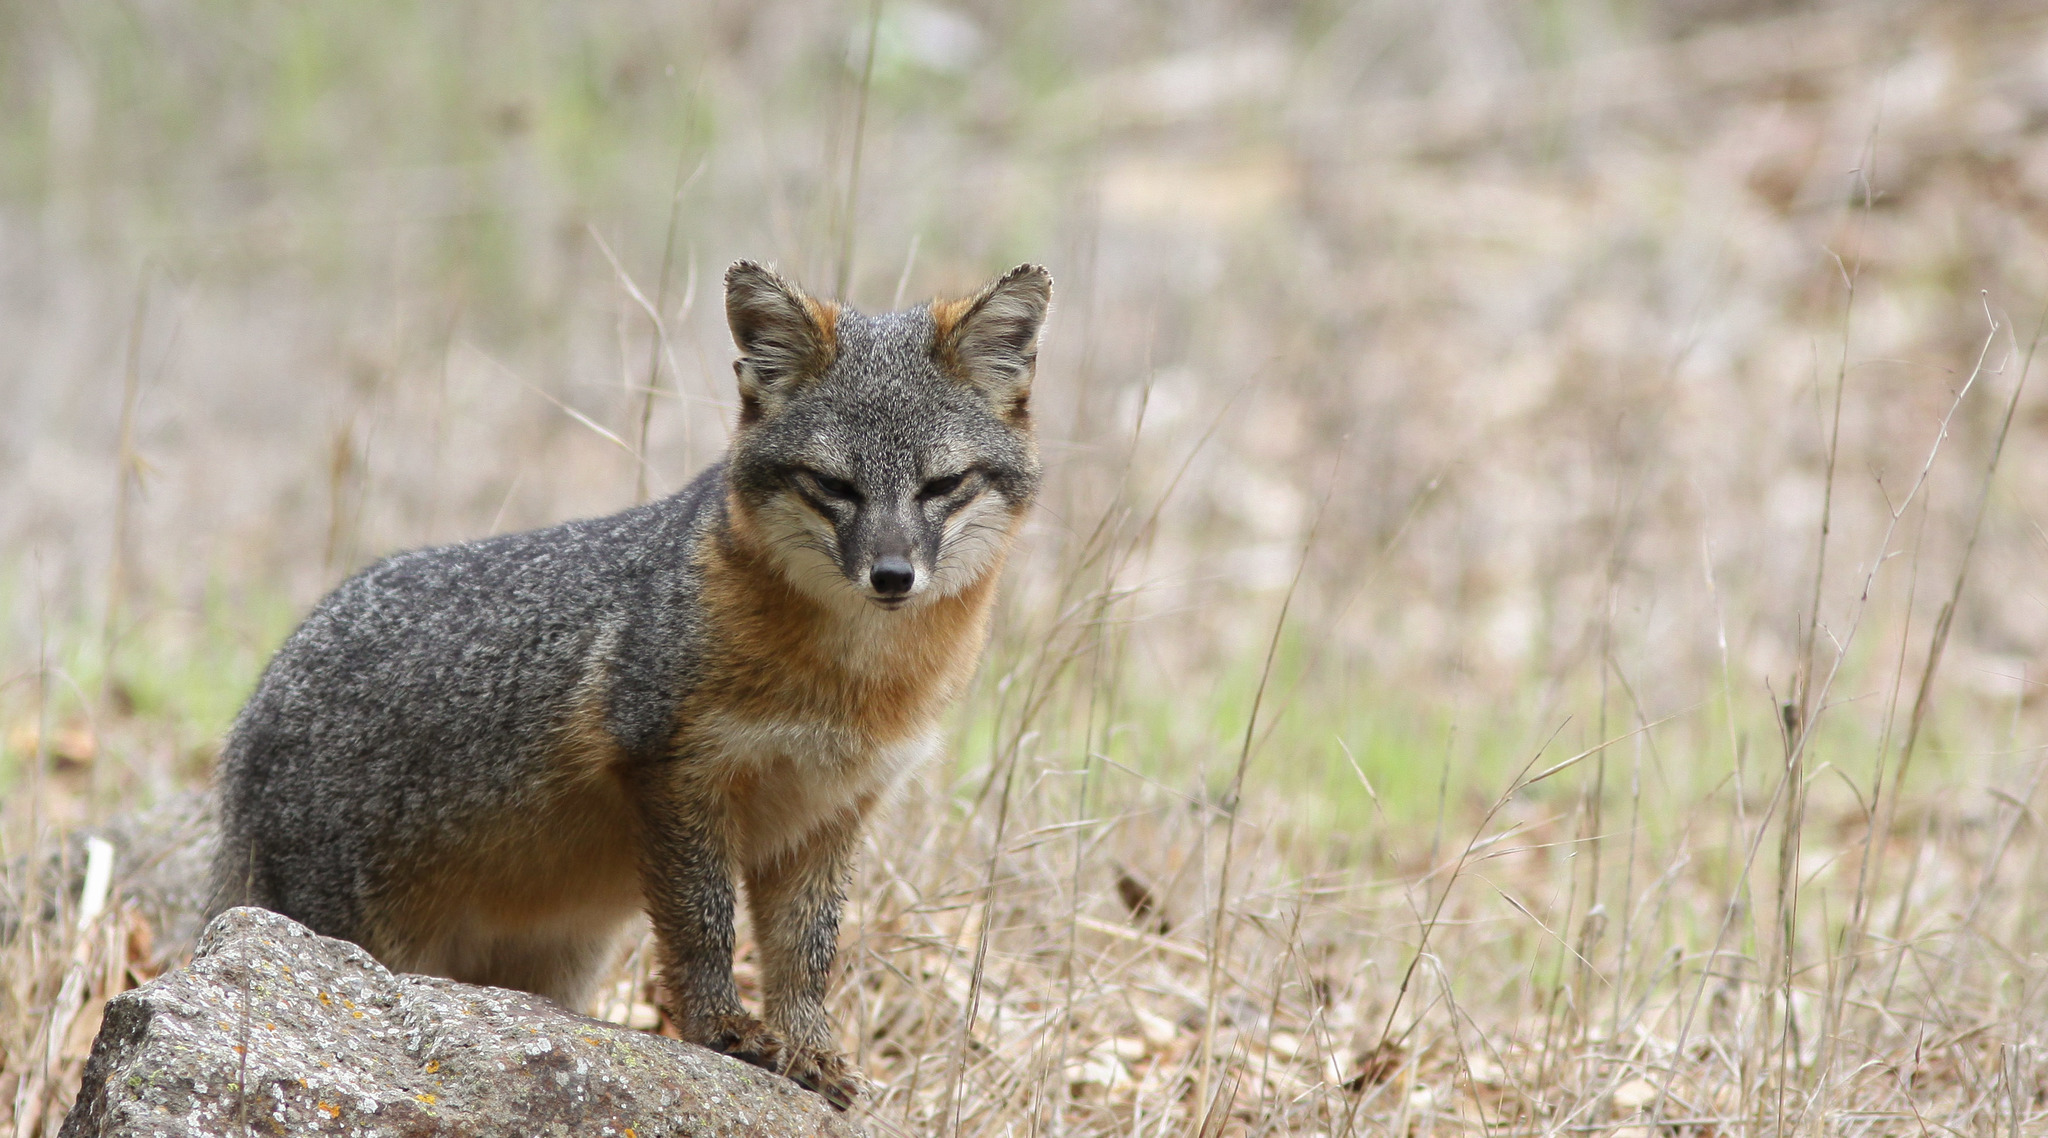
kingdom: Animalia
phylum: Chordata
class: Mammalia
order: Carnivora
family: Canidae
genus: Urocyon
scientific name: Urocyon littoralis
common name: Island gray fox
